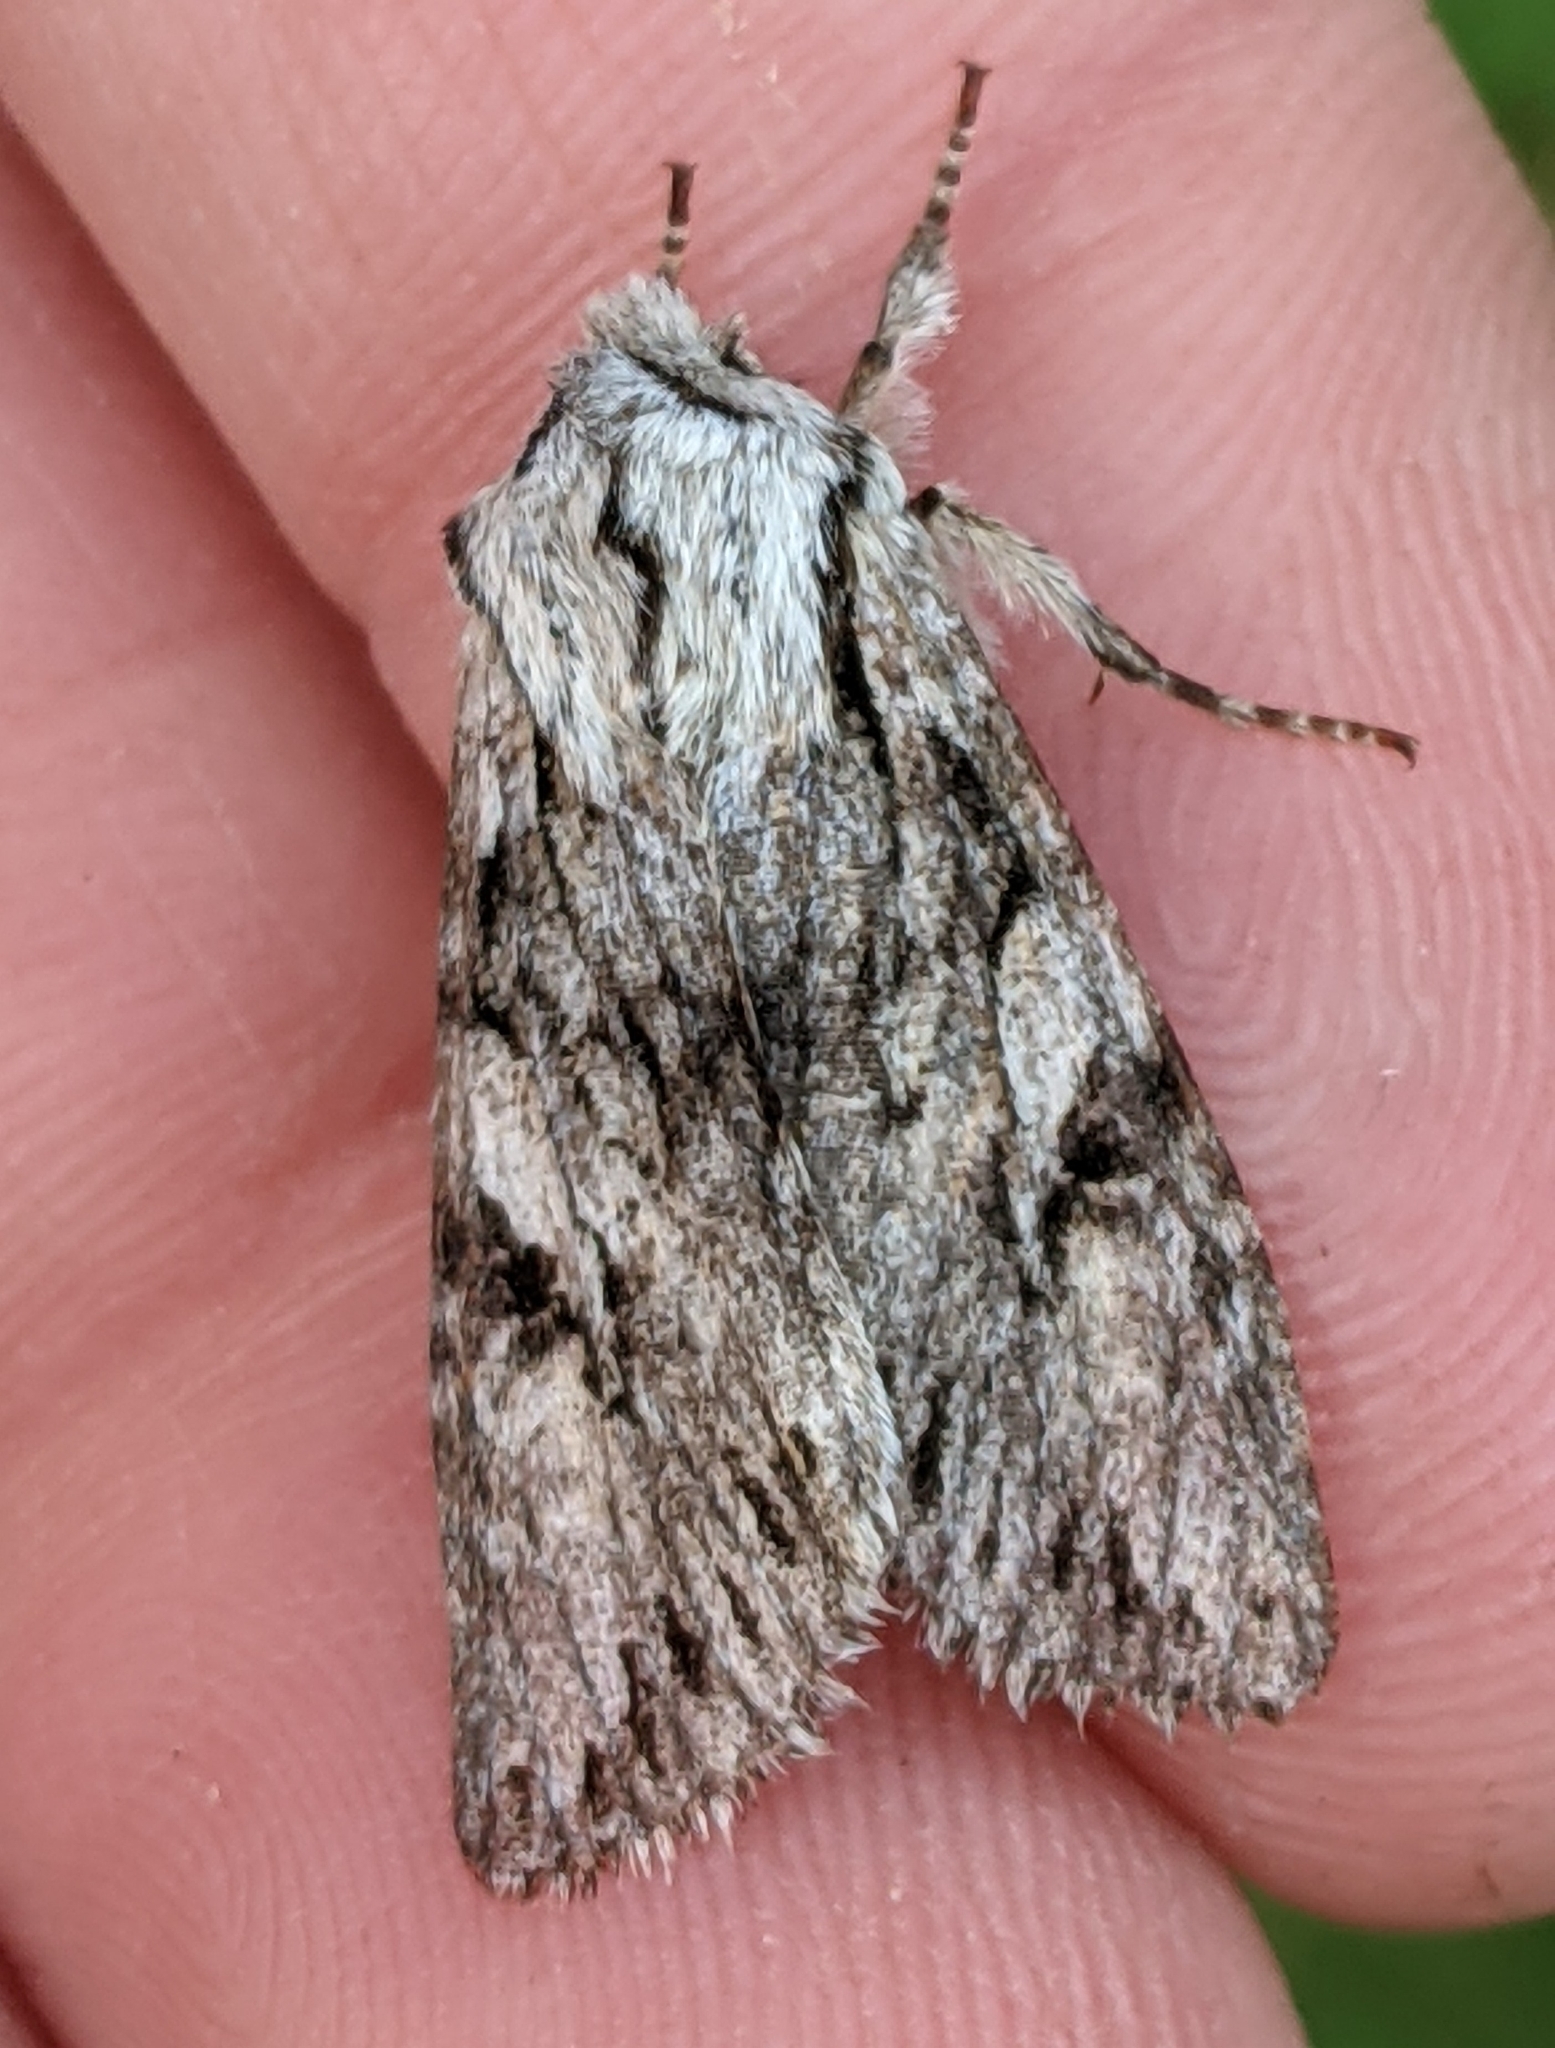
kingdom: Animalia
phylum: Arthropoda
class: Insecta
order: Lepidoptera
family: Noctuidae
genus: Egira
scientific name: Egira simplex
